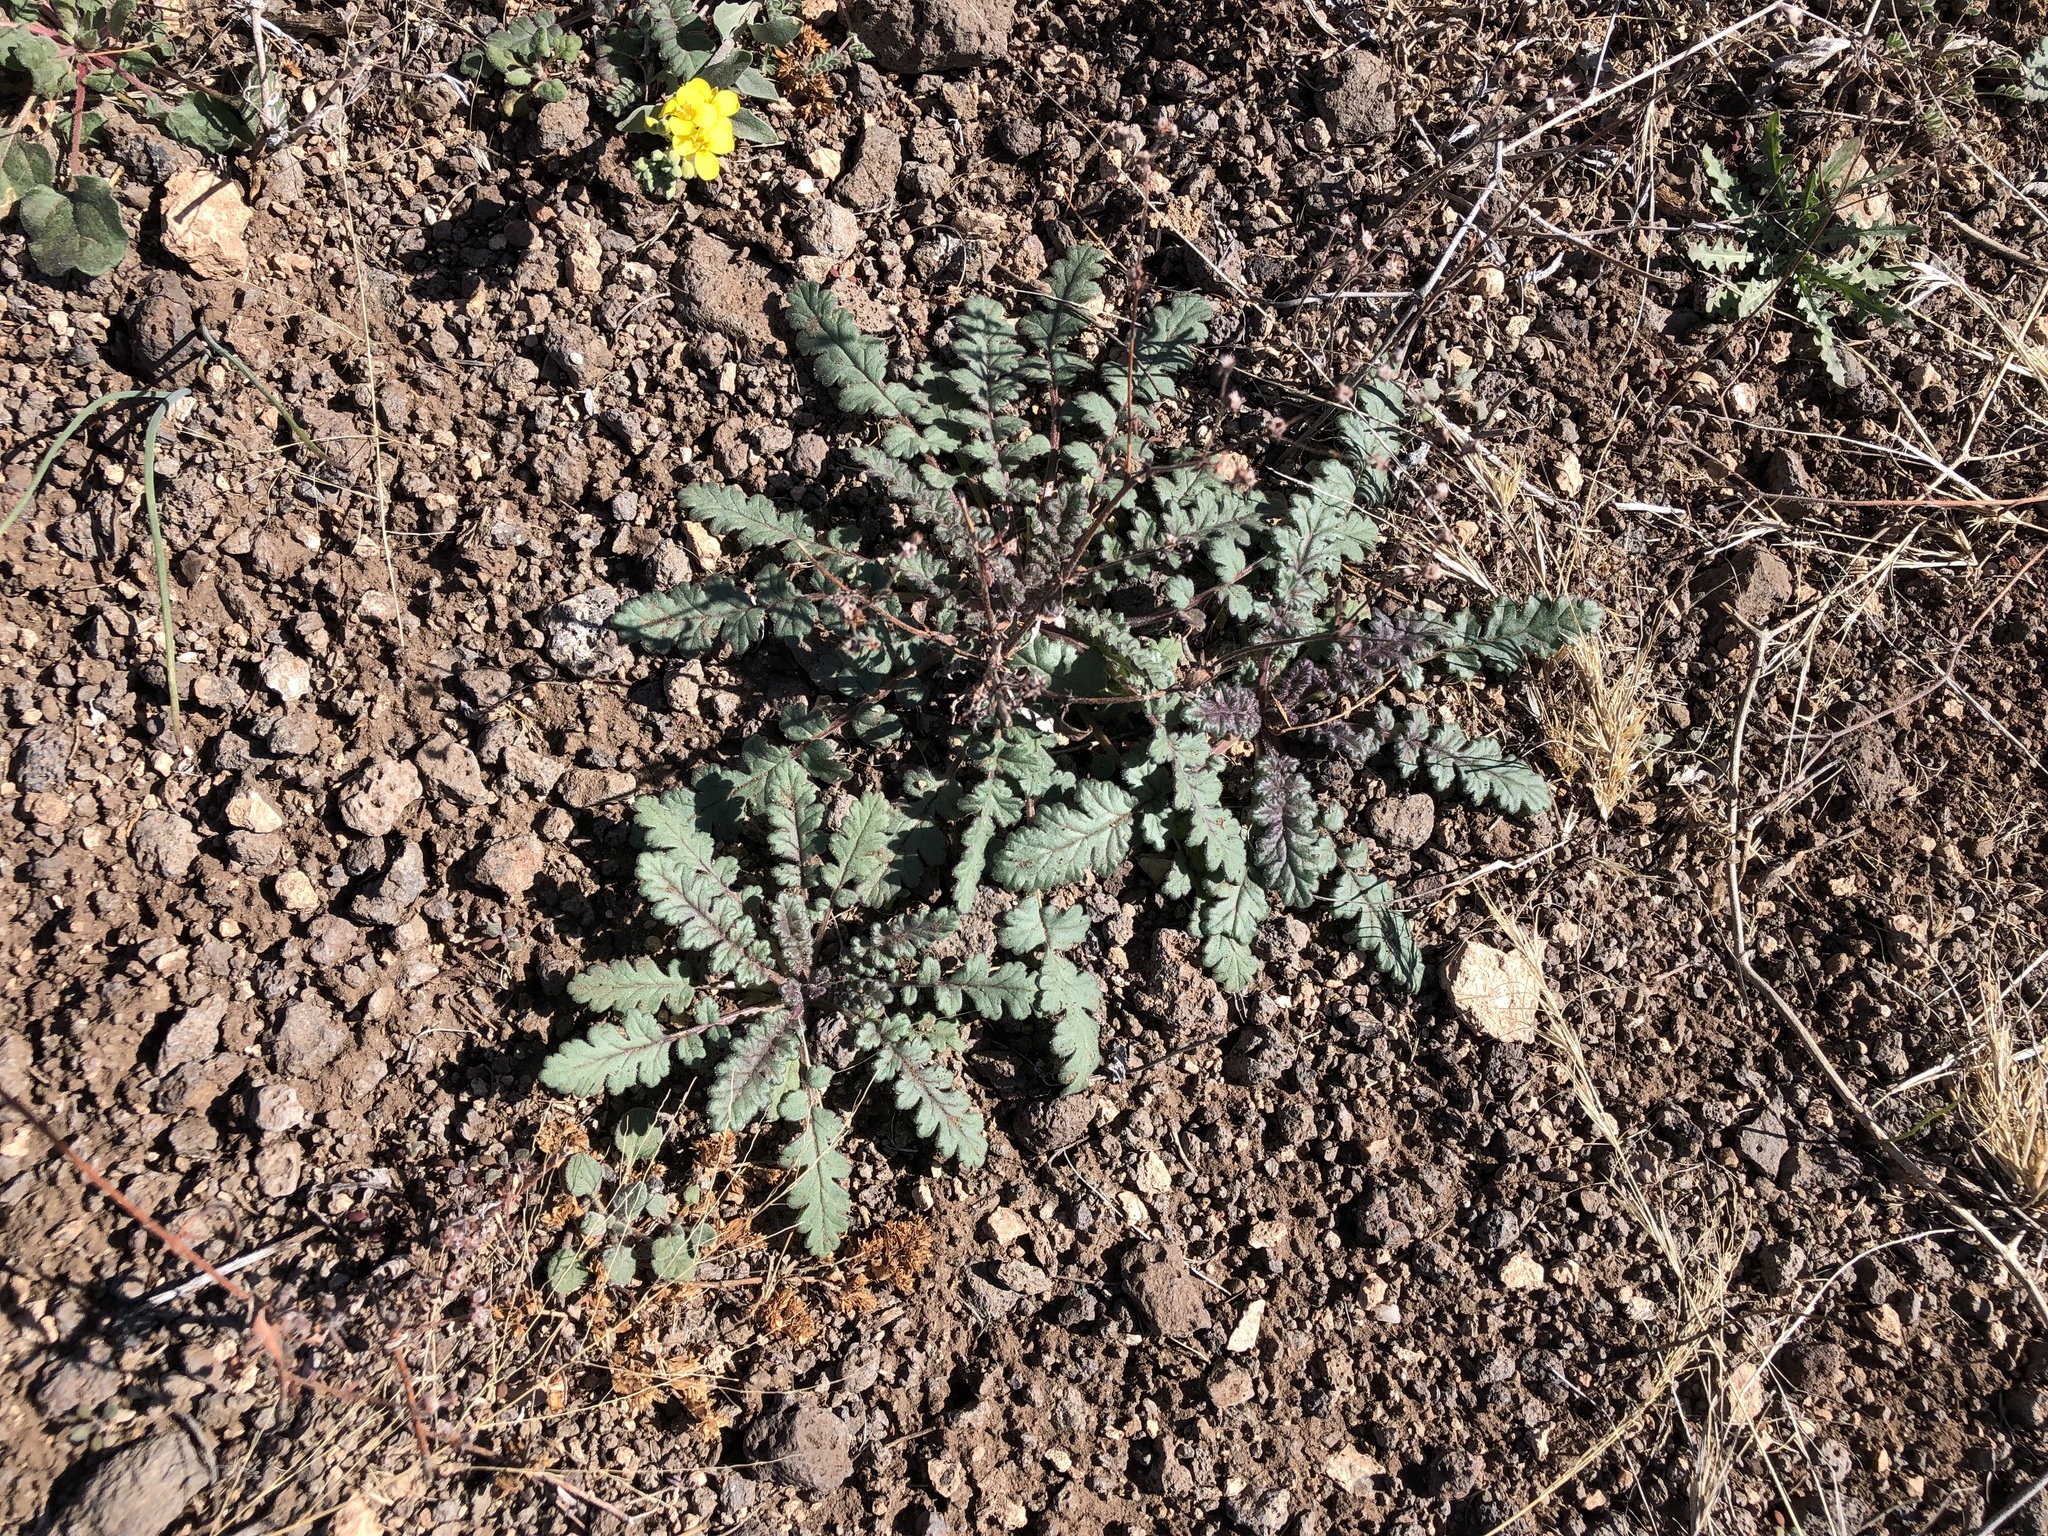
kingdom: Plantae
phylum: Tracheophyta
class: Magnoliopsida
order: Boraginales
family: Hydrophyllaceae
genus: Phacelia
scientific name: Phacelia arizonica
